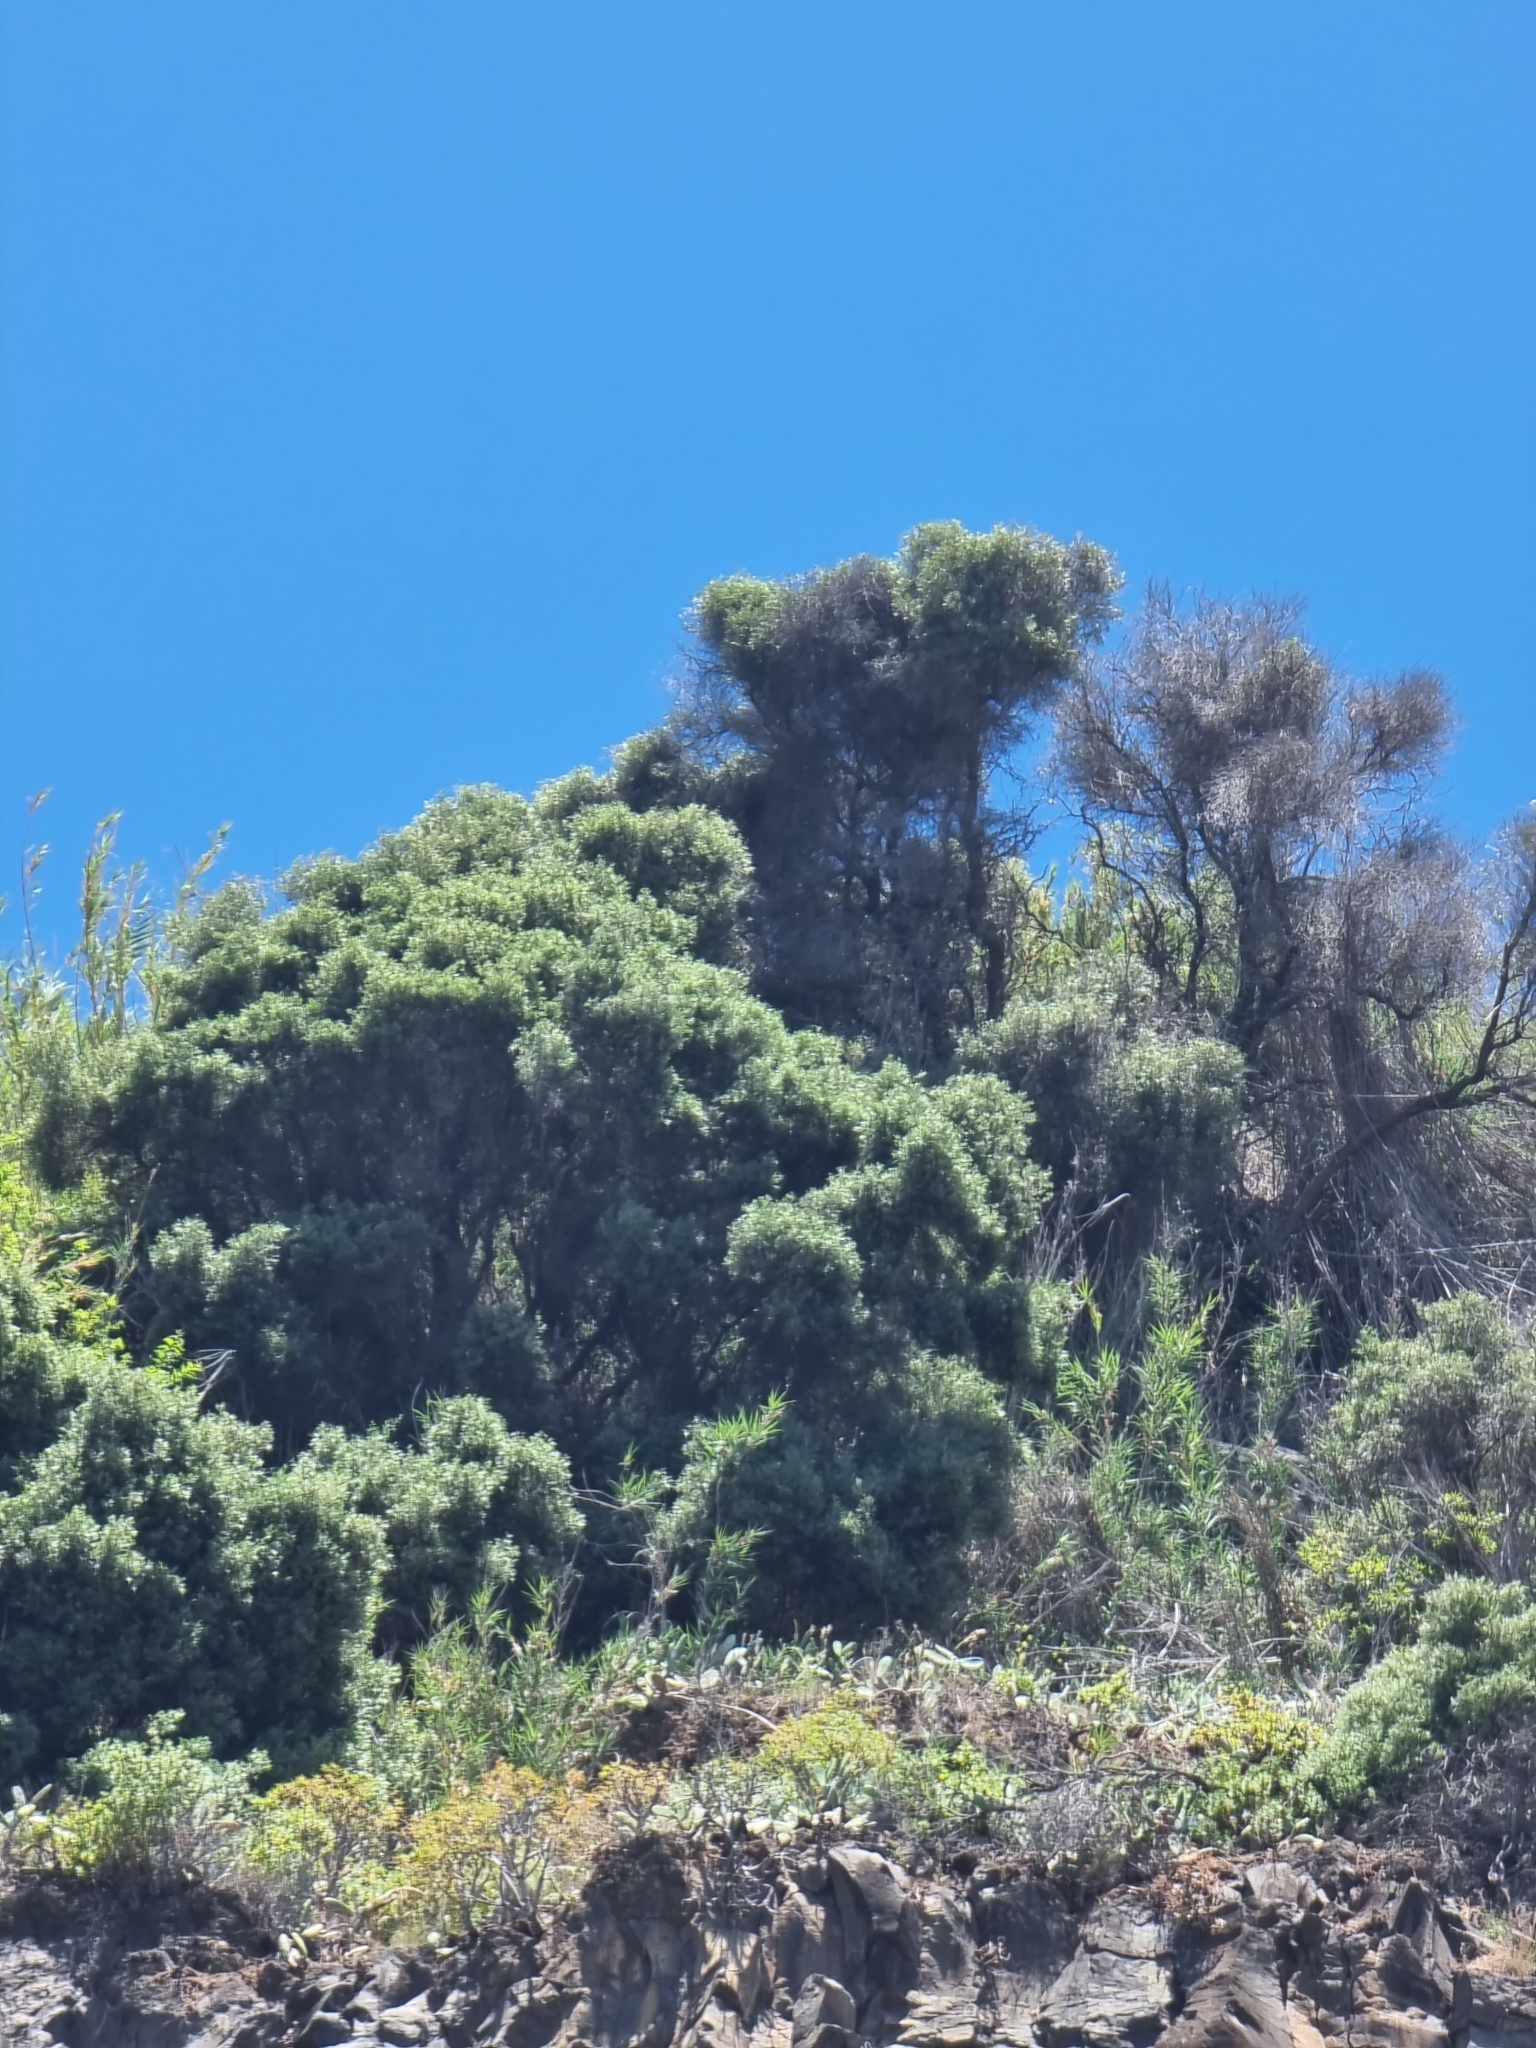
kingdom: Plantae
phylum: Tracheophyta
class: Magnoliopsida
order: Lamiales
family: Oleaceae
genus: Olea
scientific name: Olea europaea
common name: Olive
